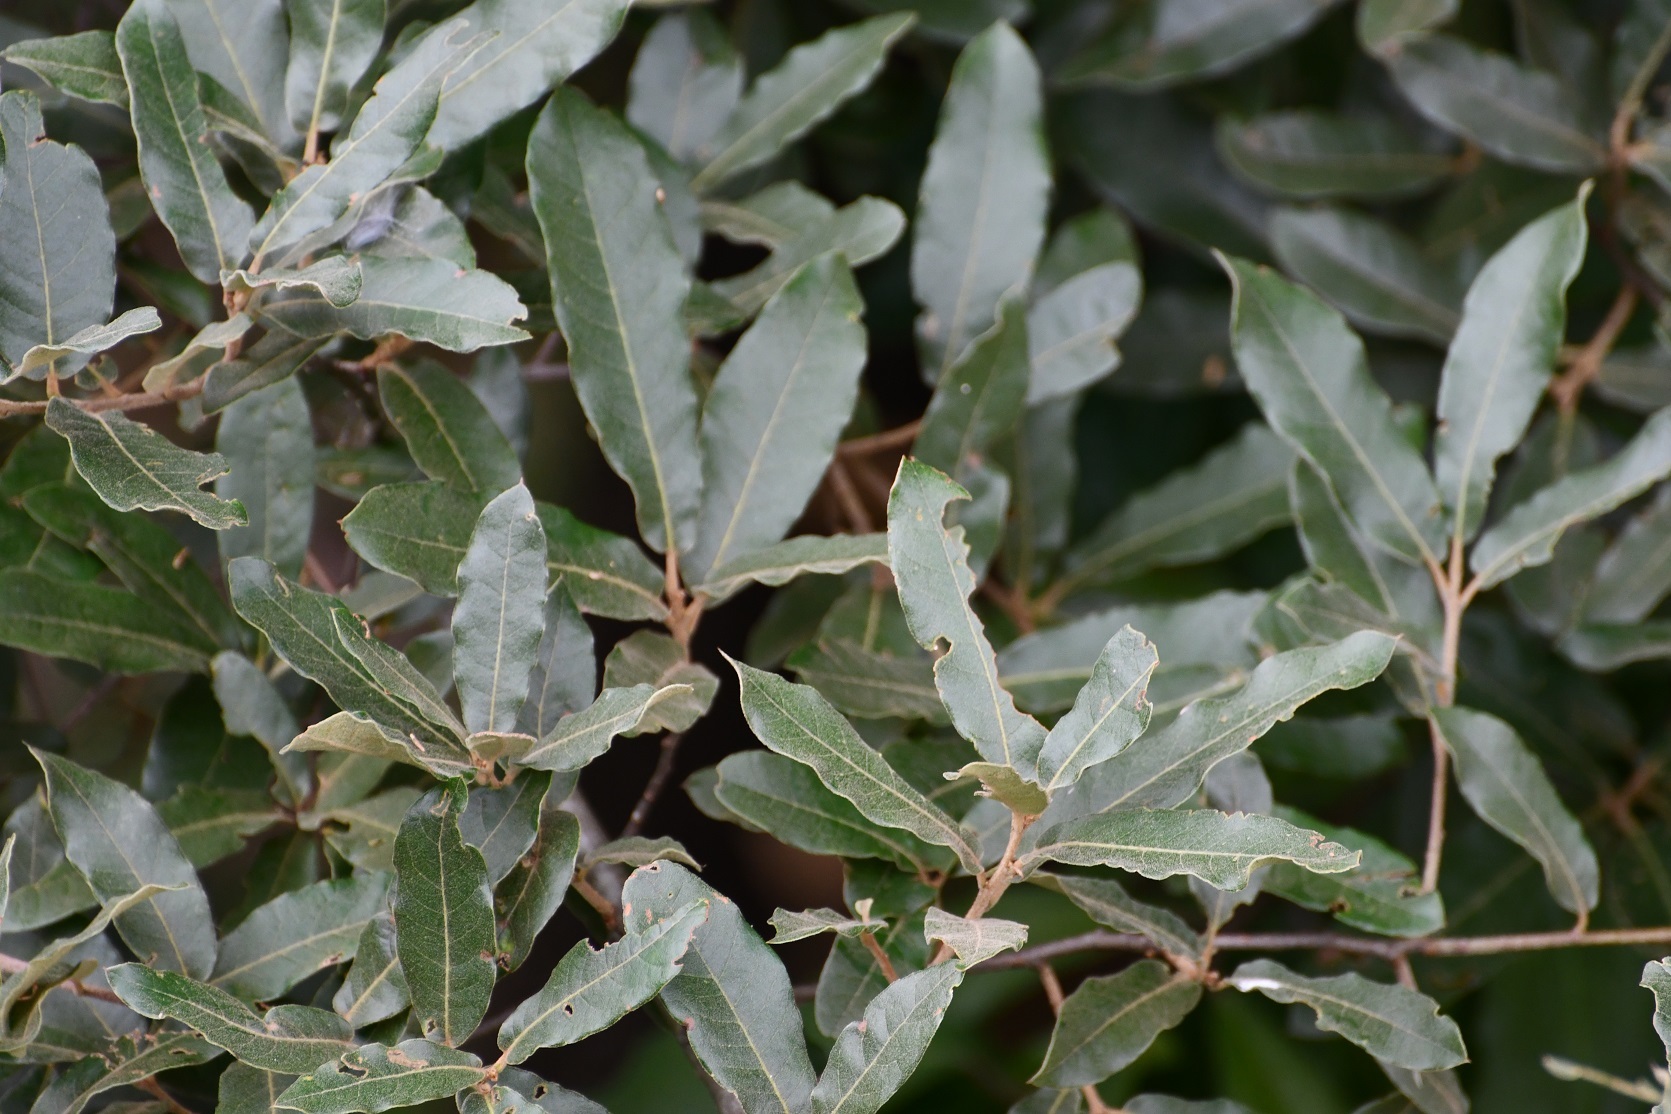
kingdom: Plantae
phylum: Tracheophyta
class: Magnoliopsida
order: Fagales
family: Fagaceae
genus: Quercus
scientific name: Quercus crispipilis
